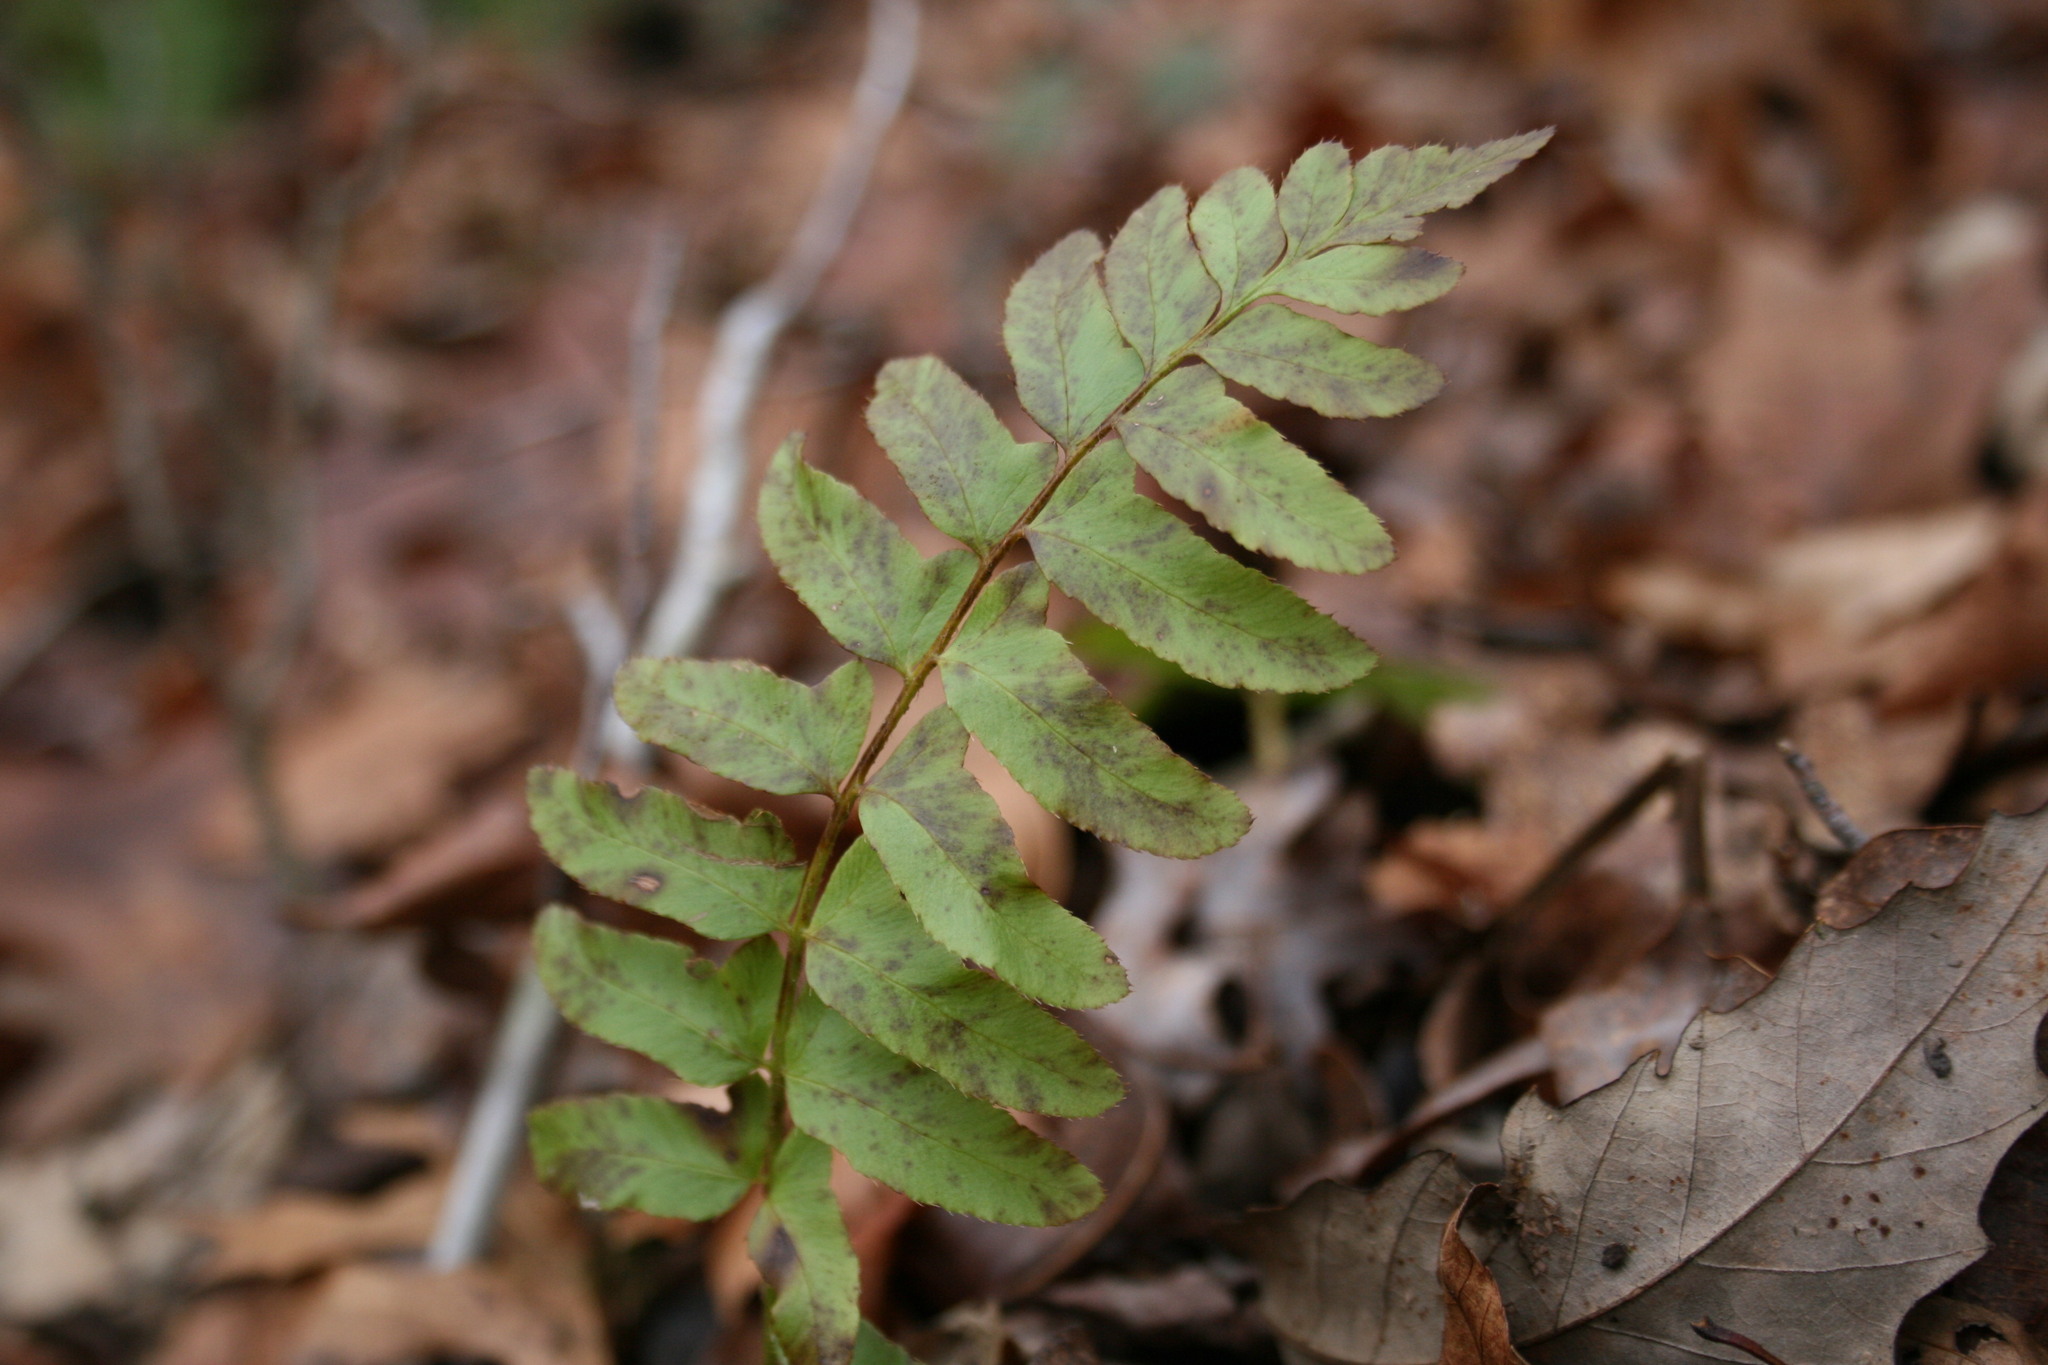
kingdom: Plantae
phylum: Tracheophyta
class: Polypodiopsida
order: Polypodiales
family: Dryopteridaceae
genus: Polystichum
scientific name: Polystichum acrostichoides
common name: Christmas fern
